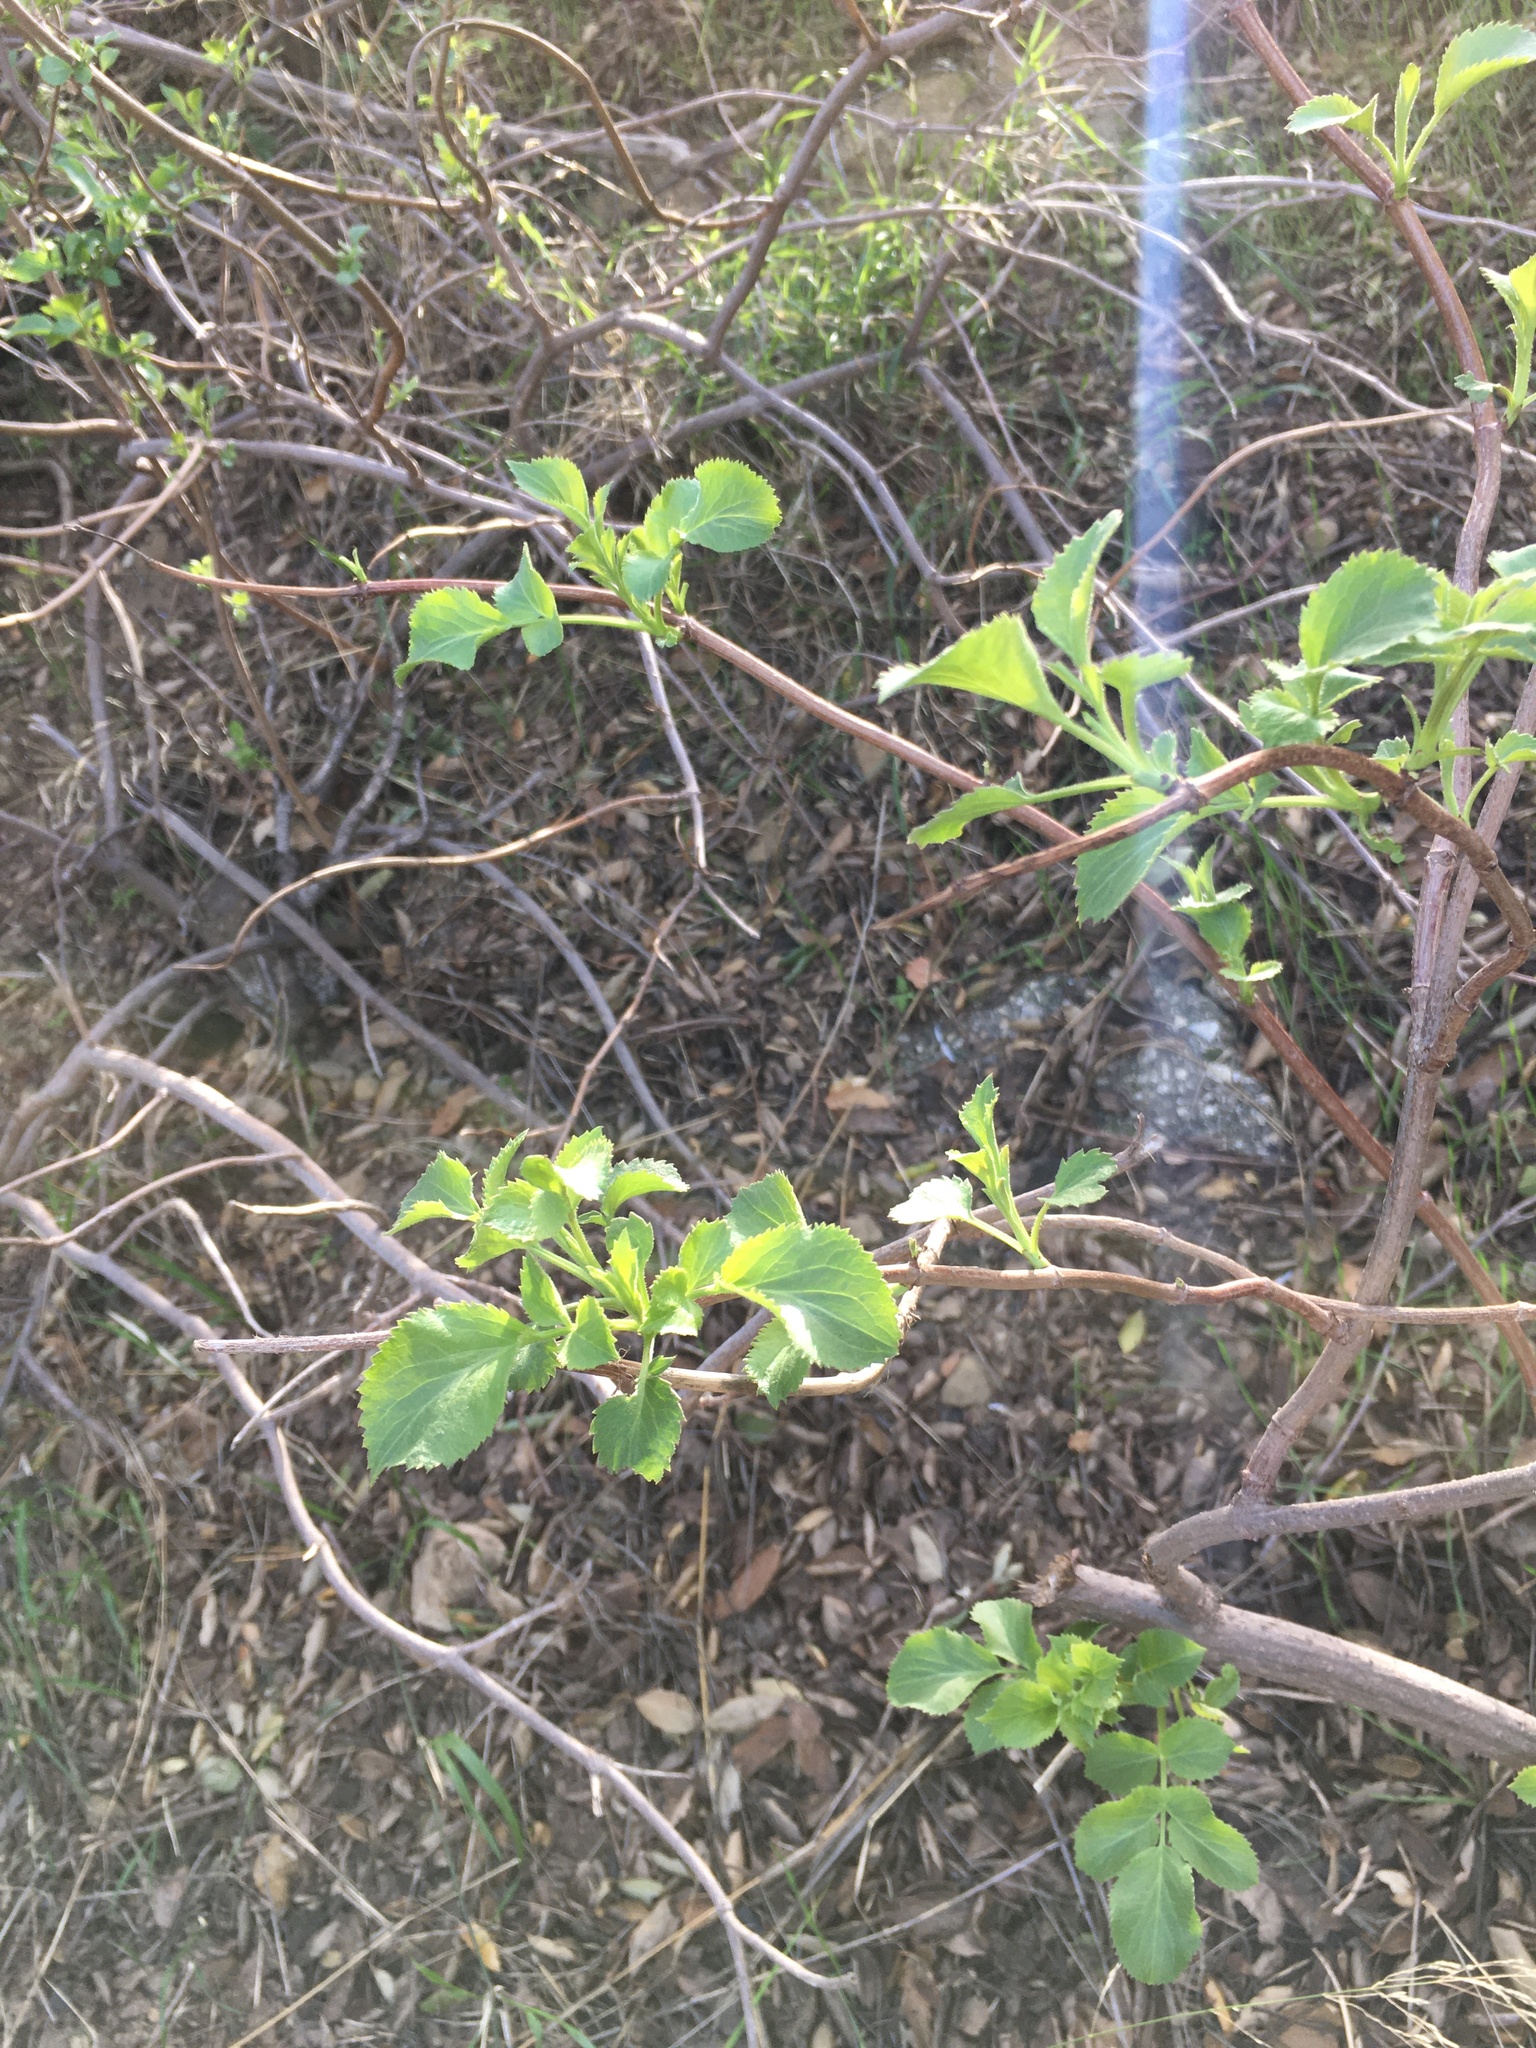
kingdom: Plantae
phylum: Tracheophyta
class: Magnoliopsida
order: Dipsacales
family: Viburnaceae
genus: Sambucus
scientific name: Sambucus cerulea
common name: Blue elder
